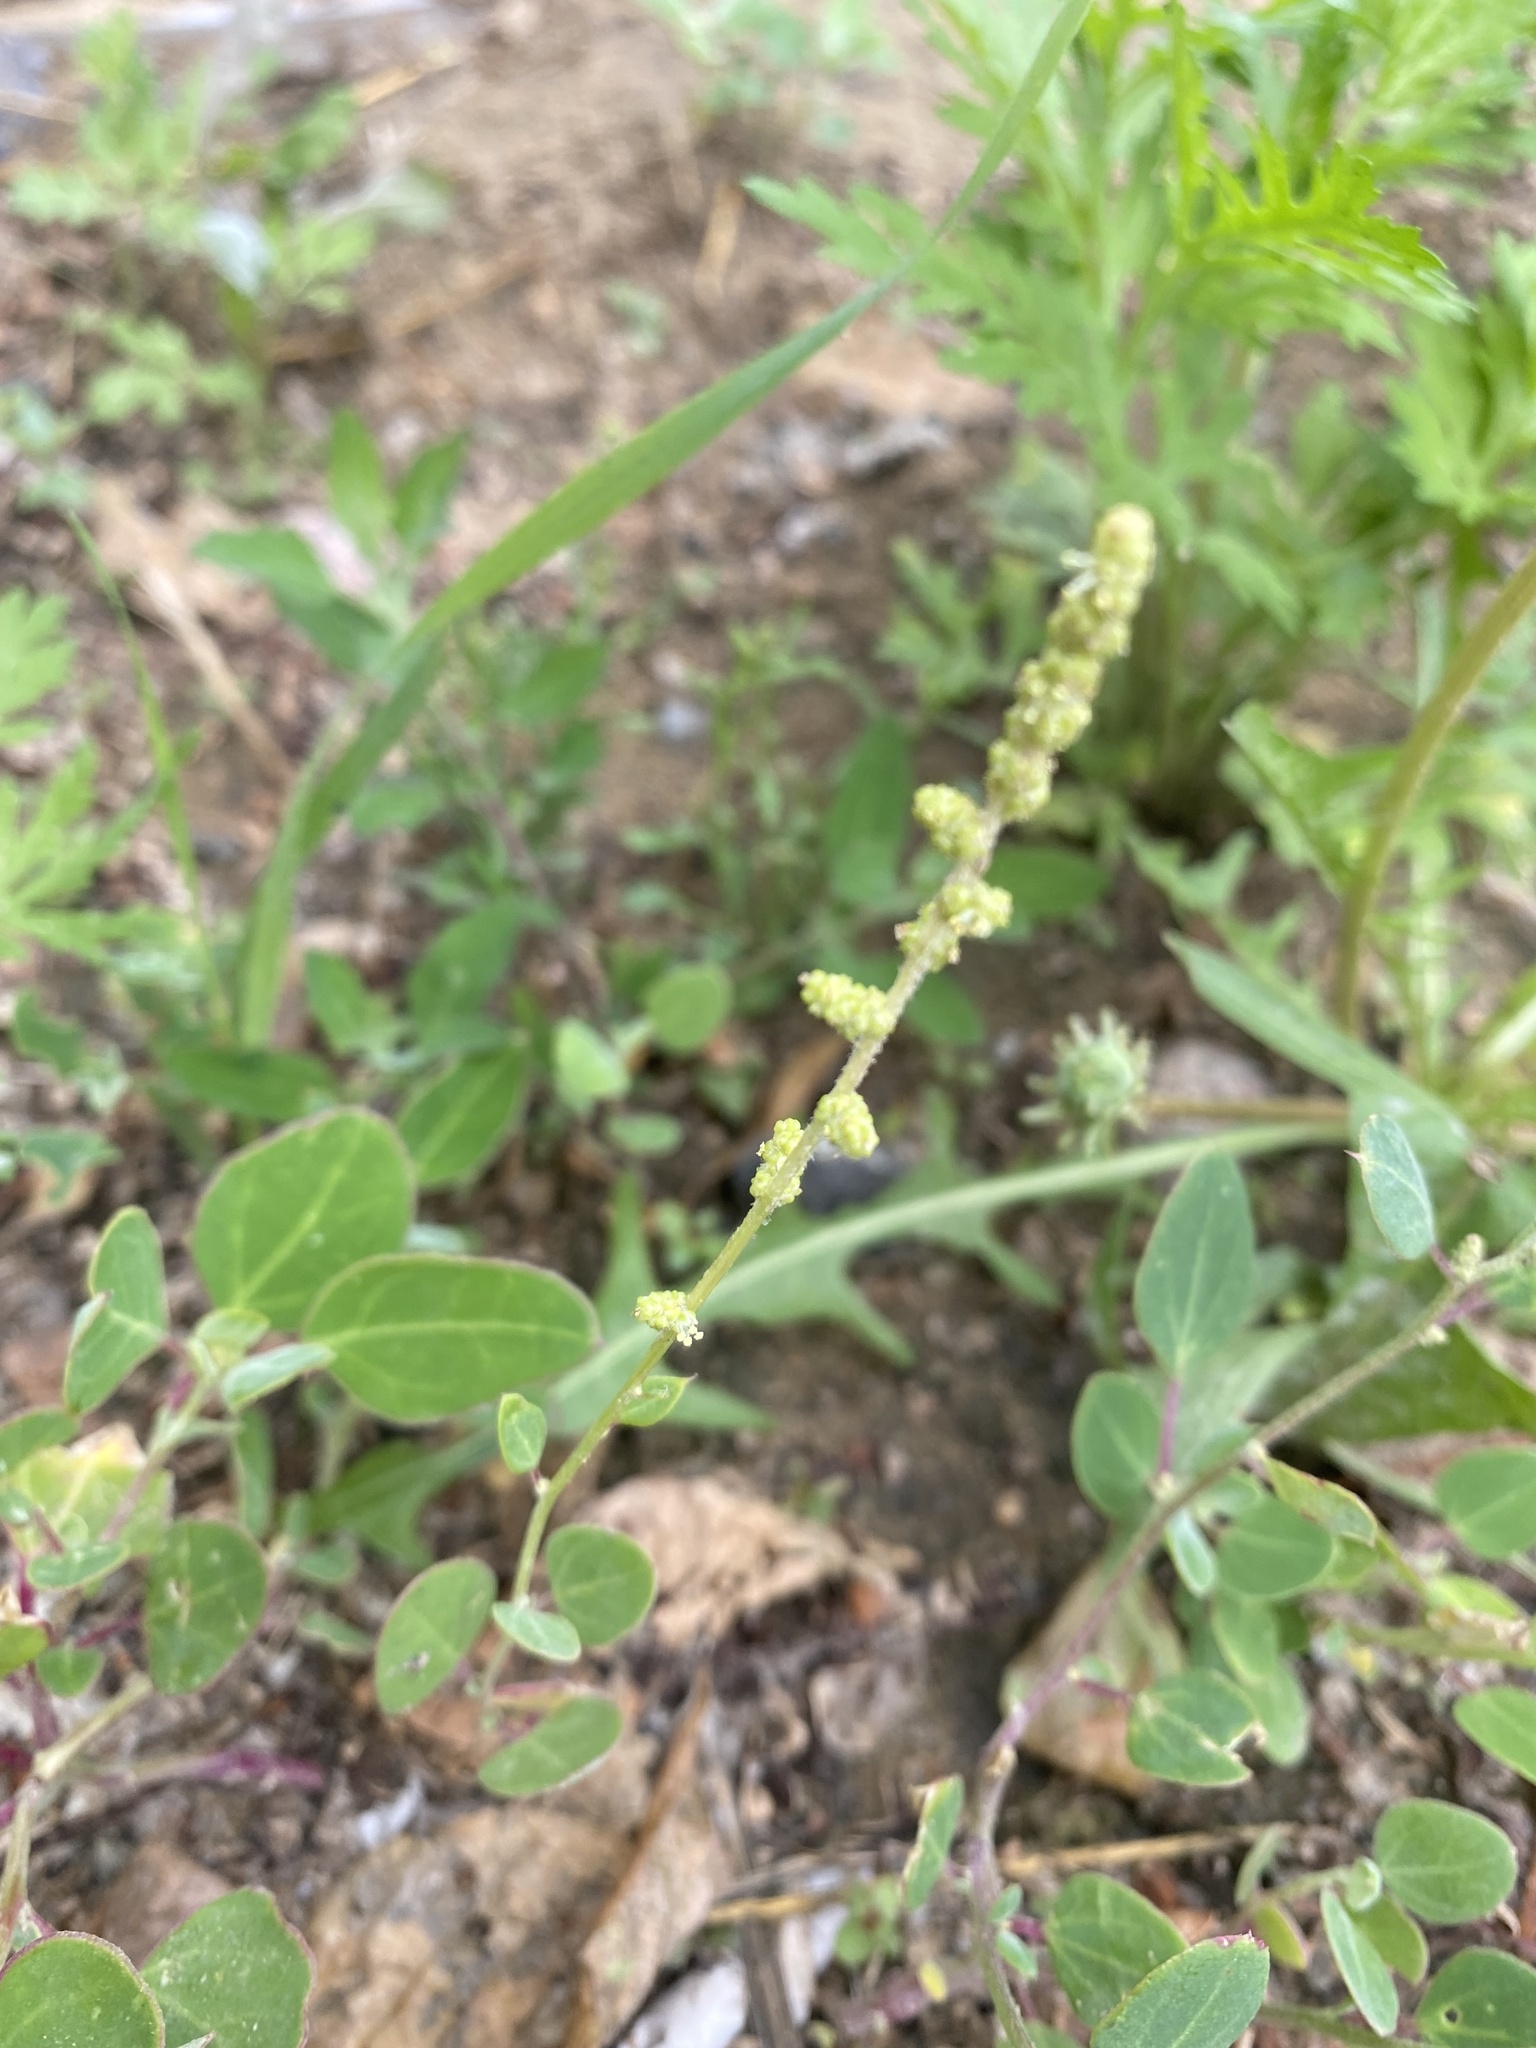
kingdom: Plantae
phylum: Tracheophyta
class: Magnoliopsida
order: Caryophyllales
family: Amaranthaceae
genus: Chenopodium
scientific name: Chenopodium acuminatum
